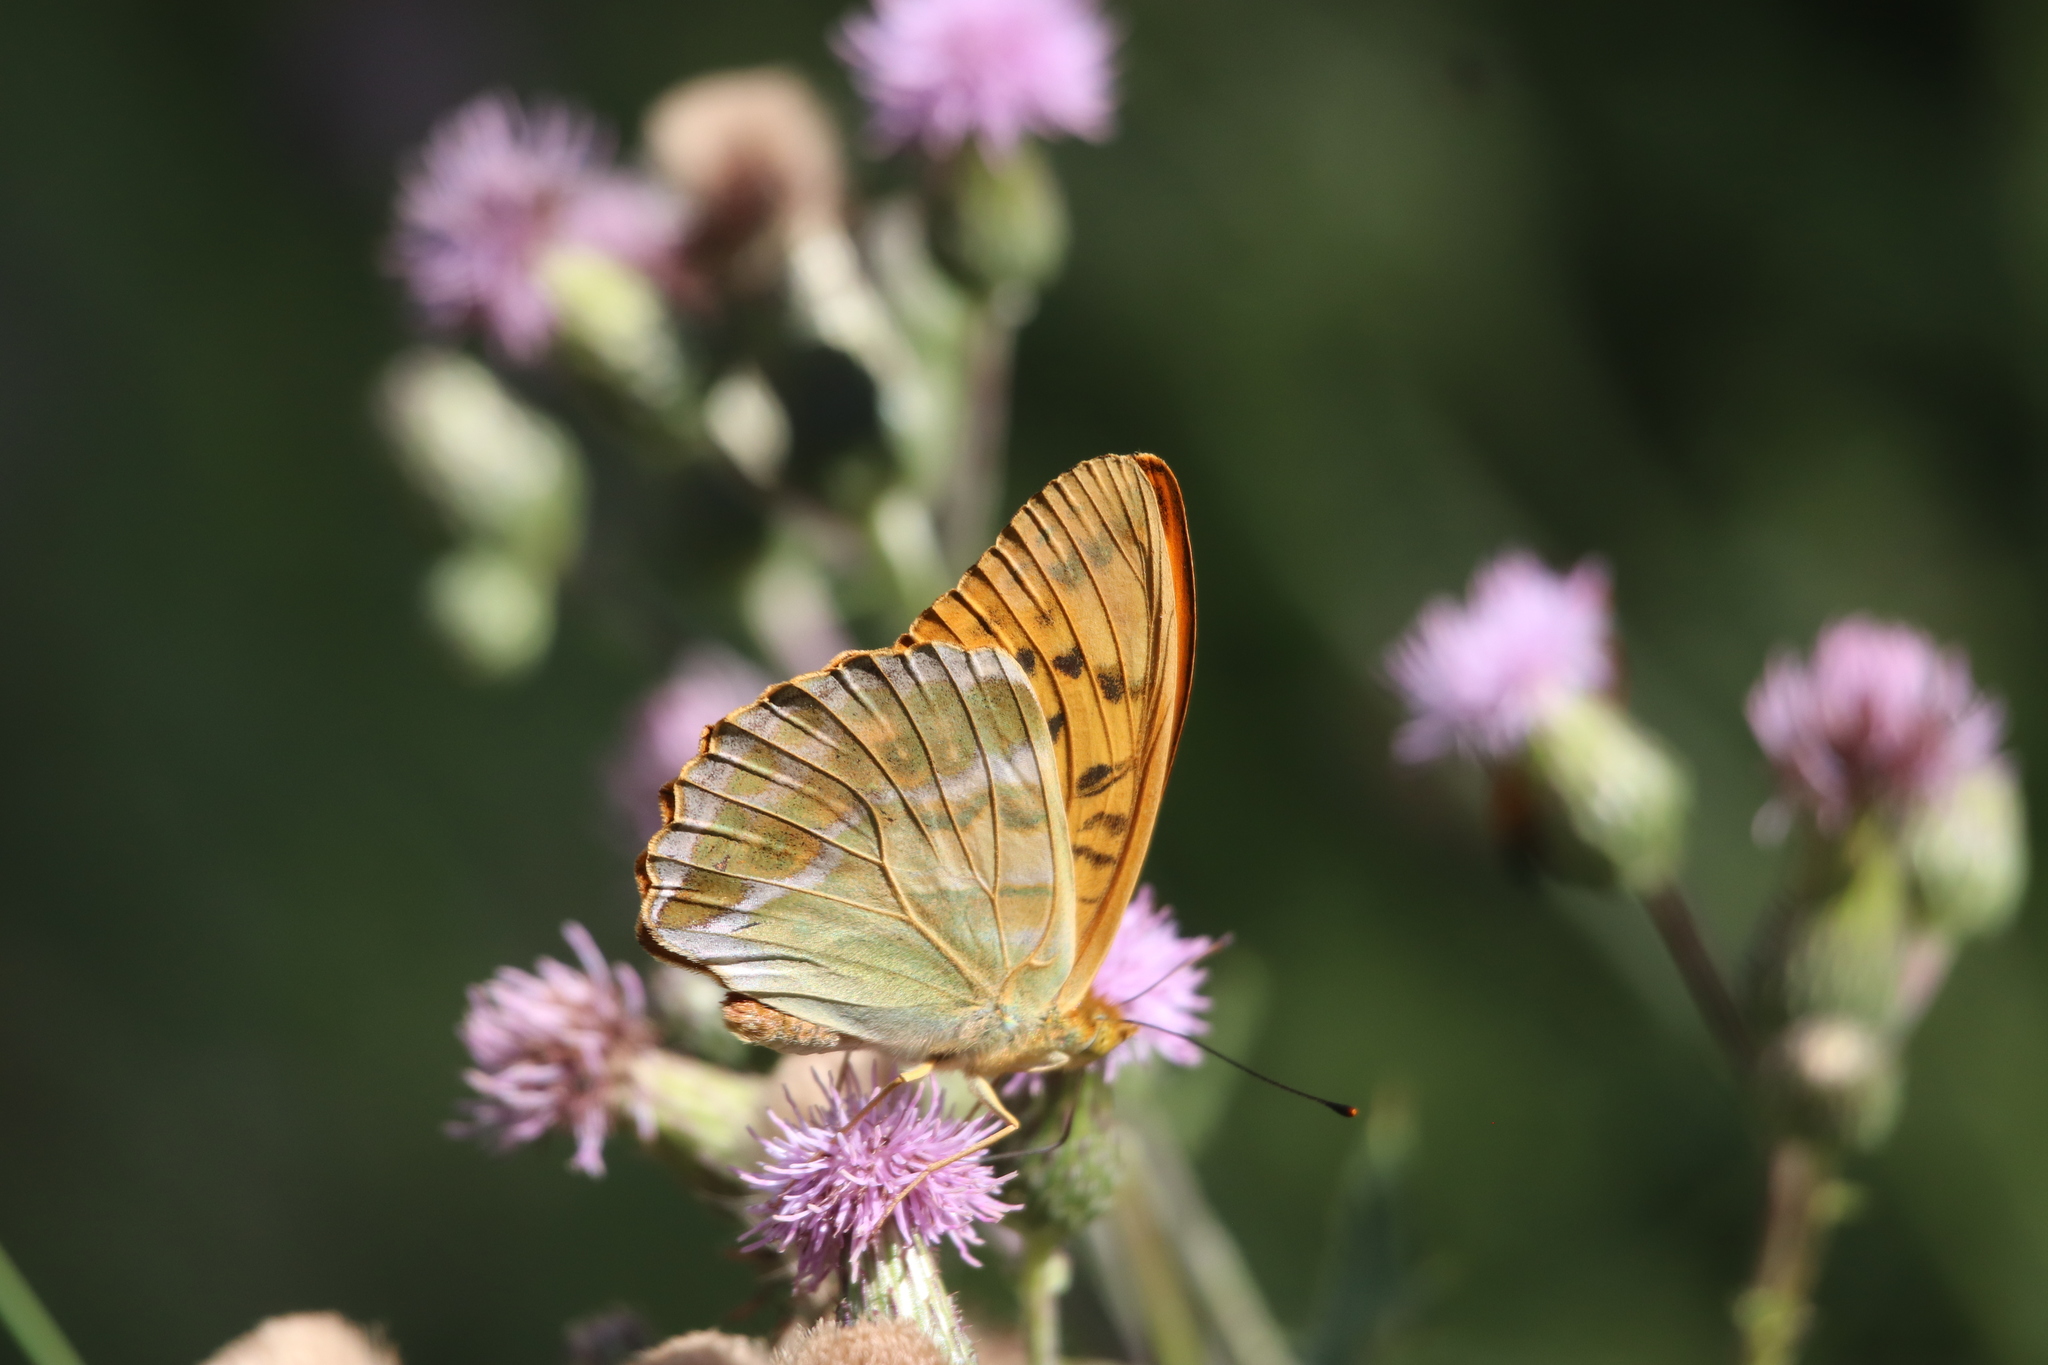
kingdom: Animalia
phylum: Arthropoda
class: Insecta
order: Lepidoptera
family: Nymphalidae
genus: Argynnis
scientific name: Argynnis paphia
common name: Silver-washed fritillary
